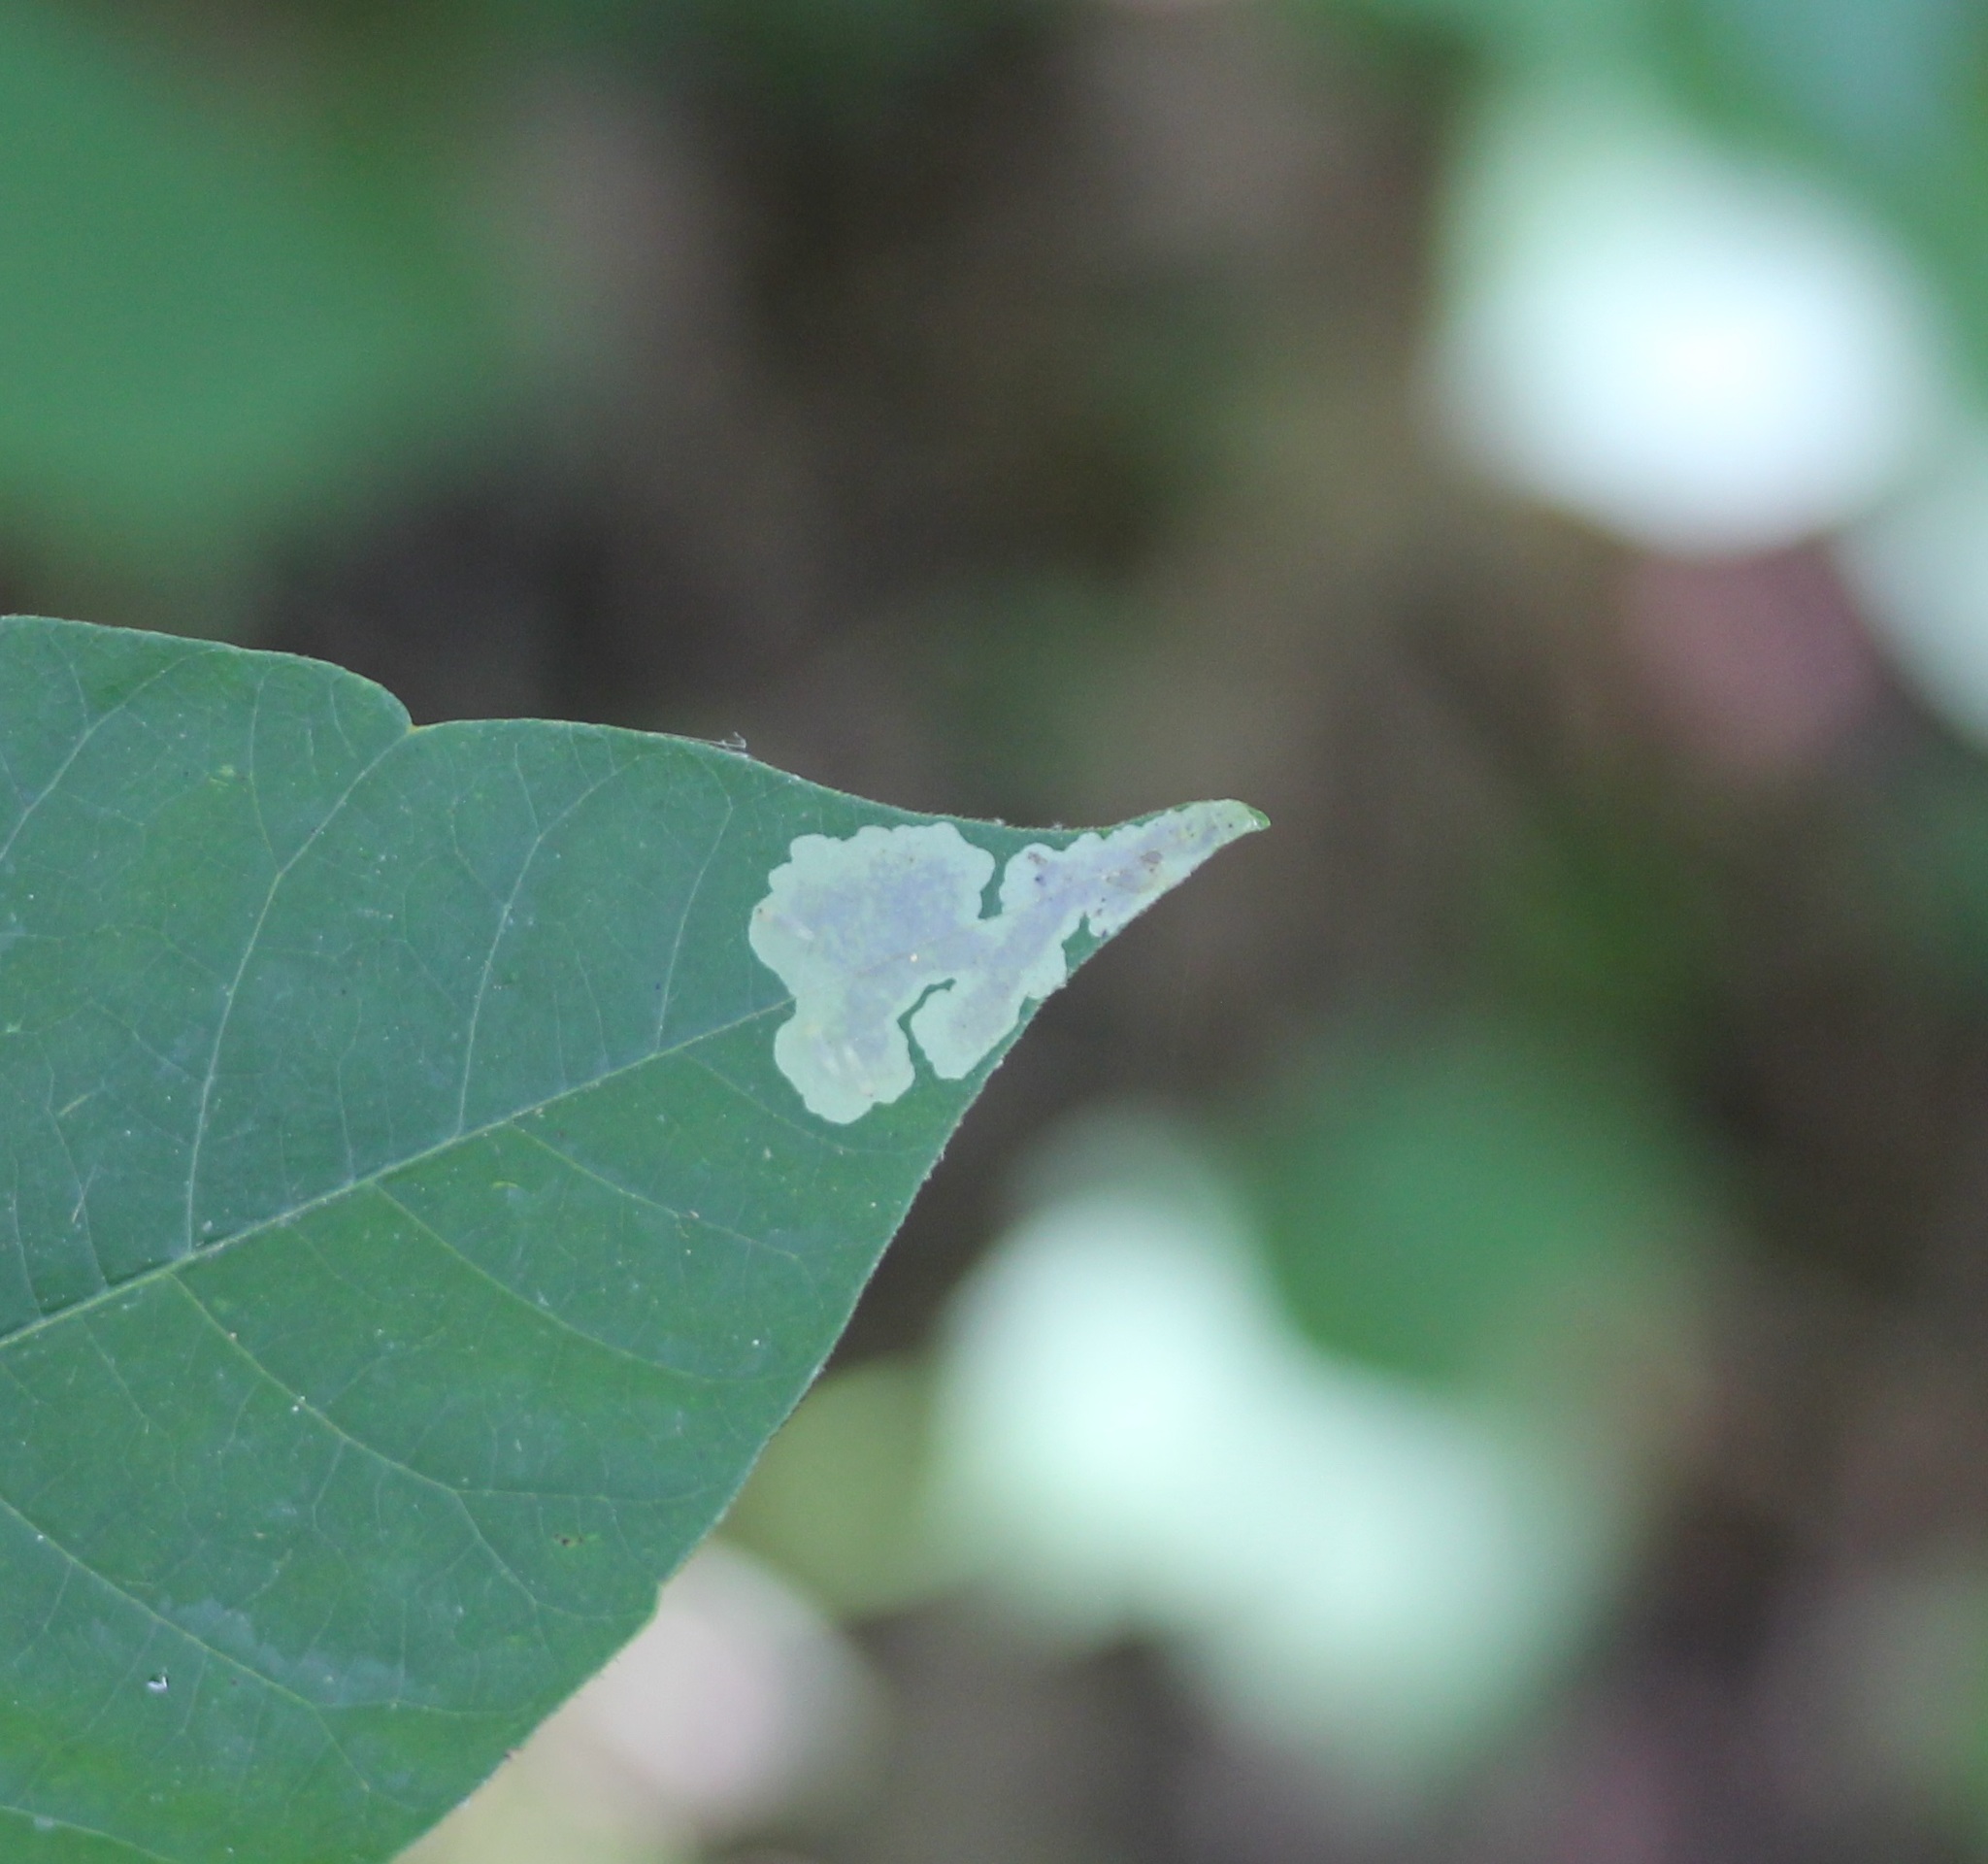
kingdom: Animalia
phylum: Arthropoda
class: Insecta
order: Lepidoptera
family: Gracillariidae
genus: Cameraria
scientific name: Cameraria guttifinitella
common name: Poison ivy leaf-miner moth
